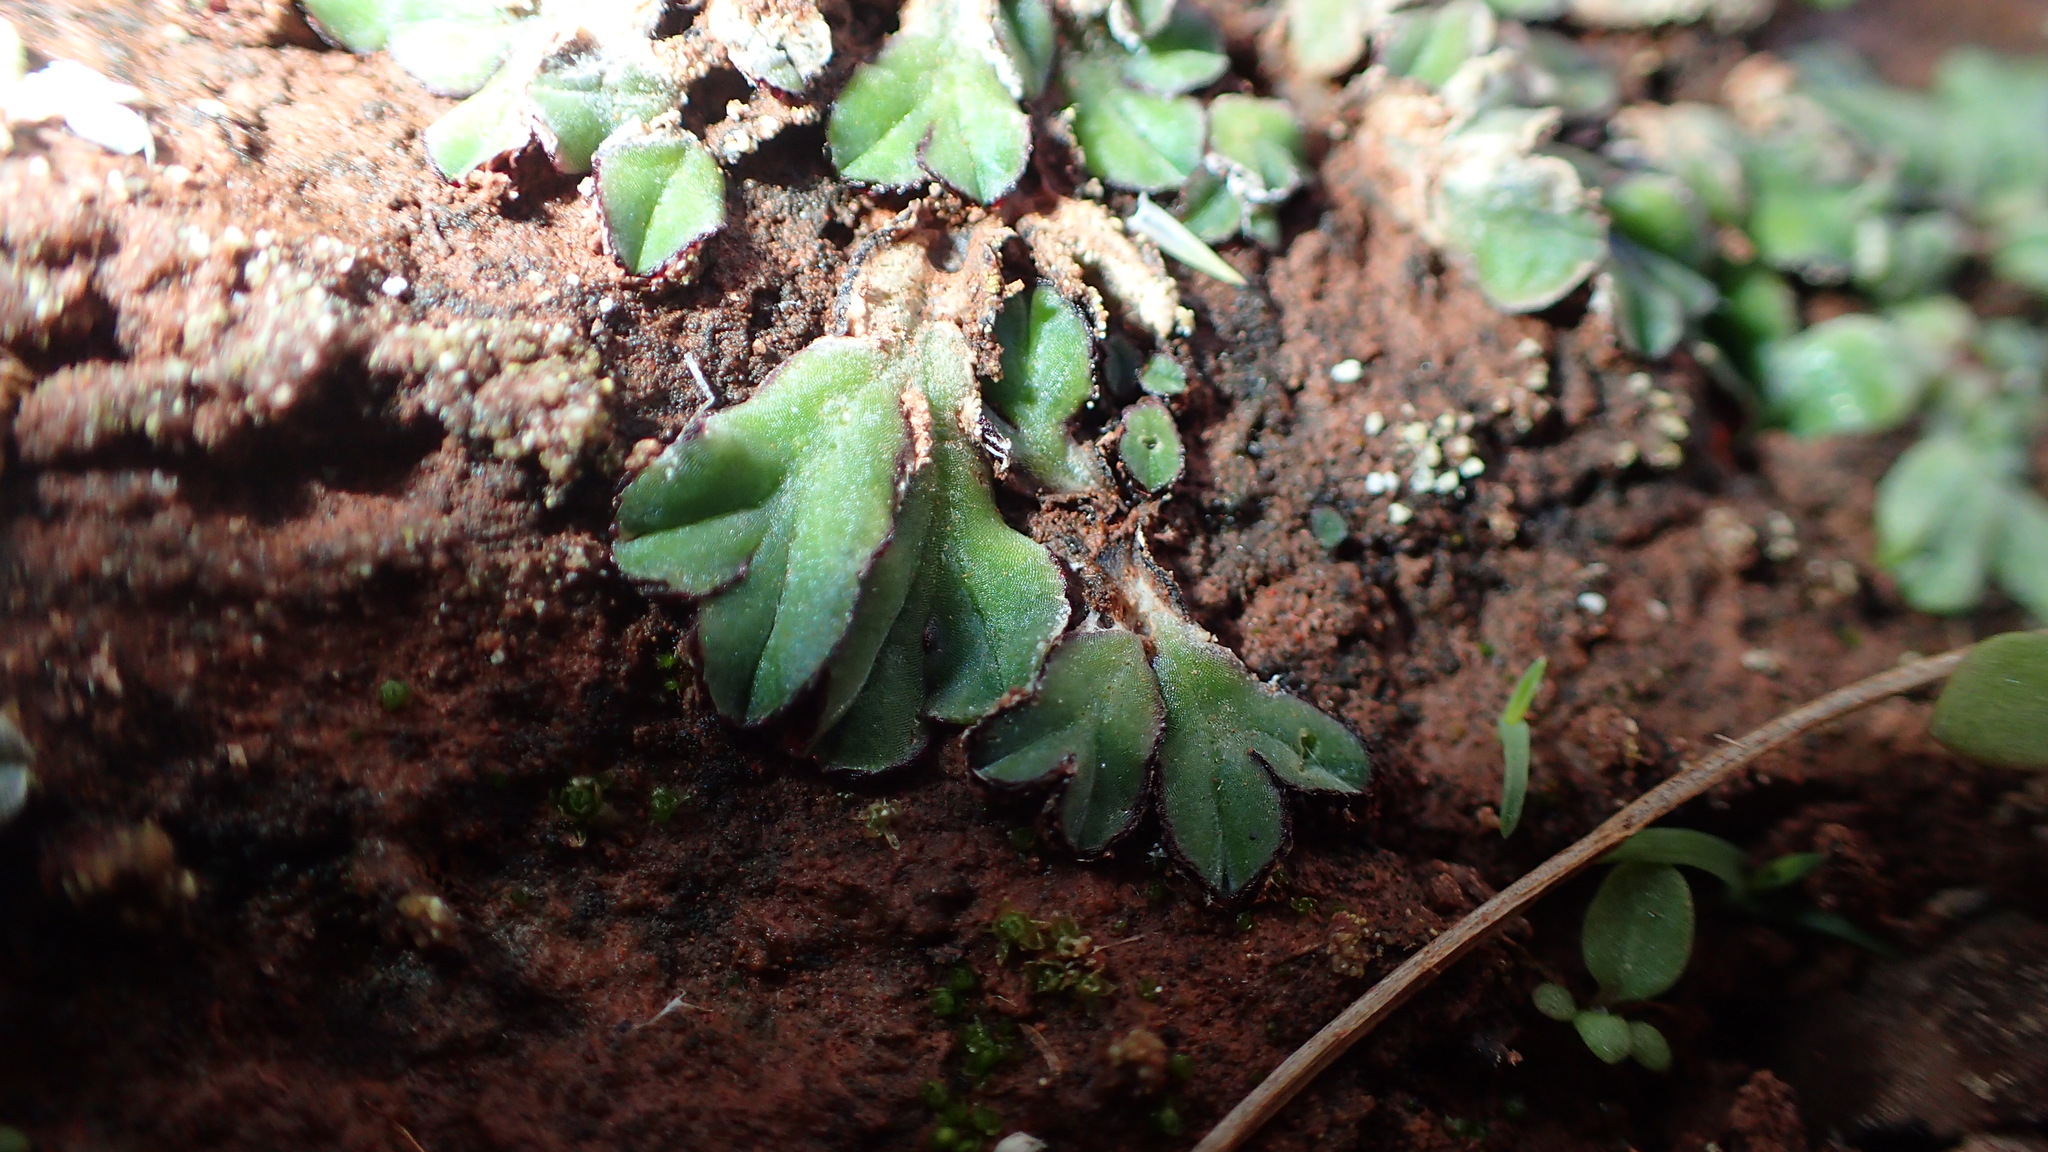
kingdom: Plantae
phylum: Marchantiophyta
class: Marchantiopsida
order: Marchantiales
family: Ricciaceae
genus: Riccia
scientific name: Riccia inflexa
